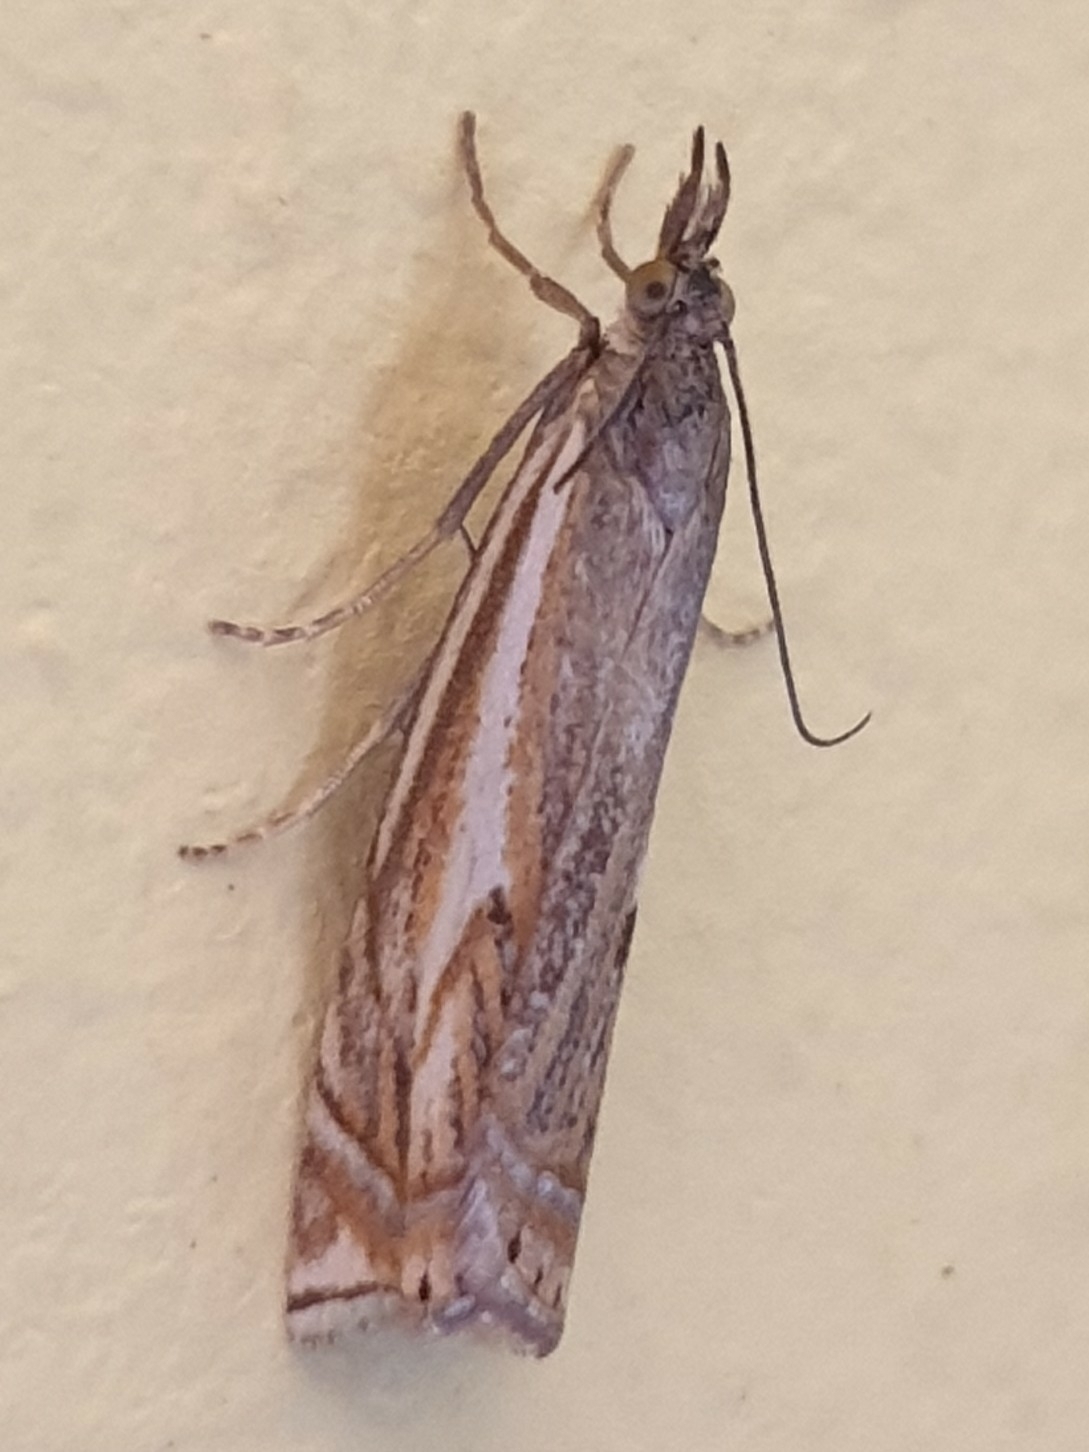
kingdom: Animalia
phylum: Arthropoda
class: Insecta
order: Lepidoptera
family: Crambidae
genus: Crambus
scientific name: Crambus nemorella
